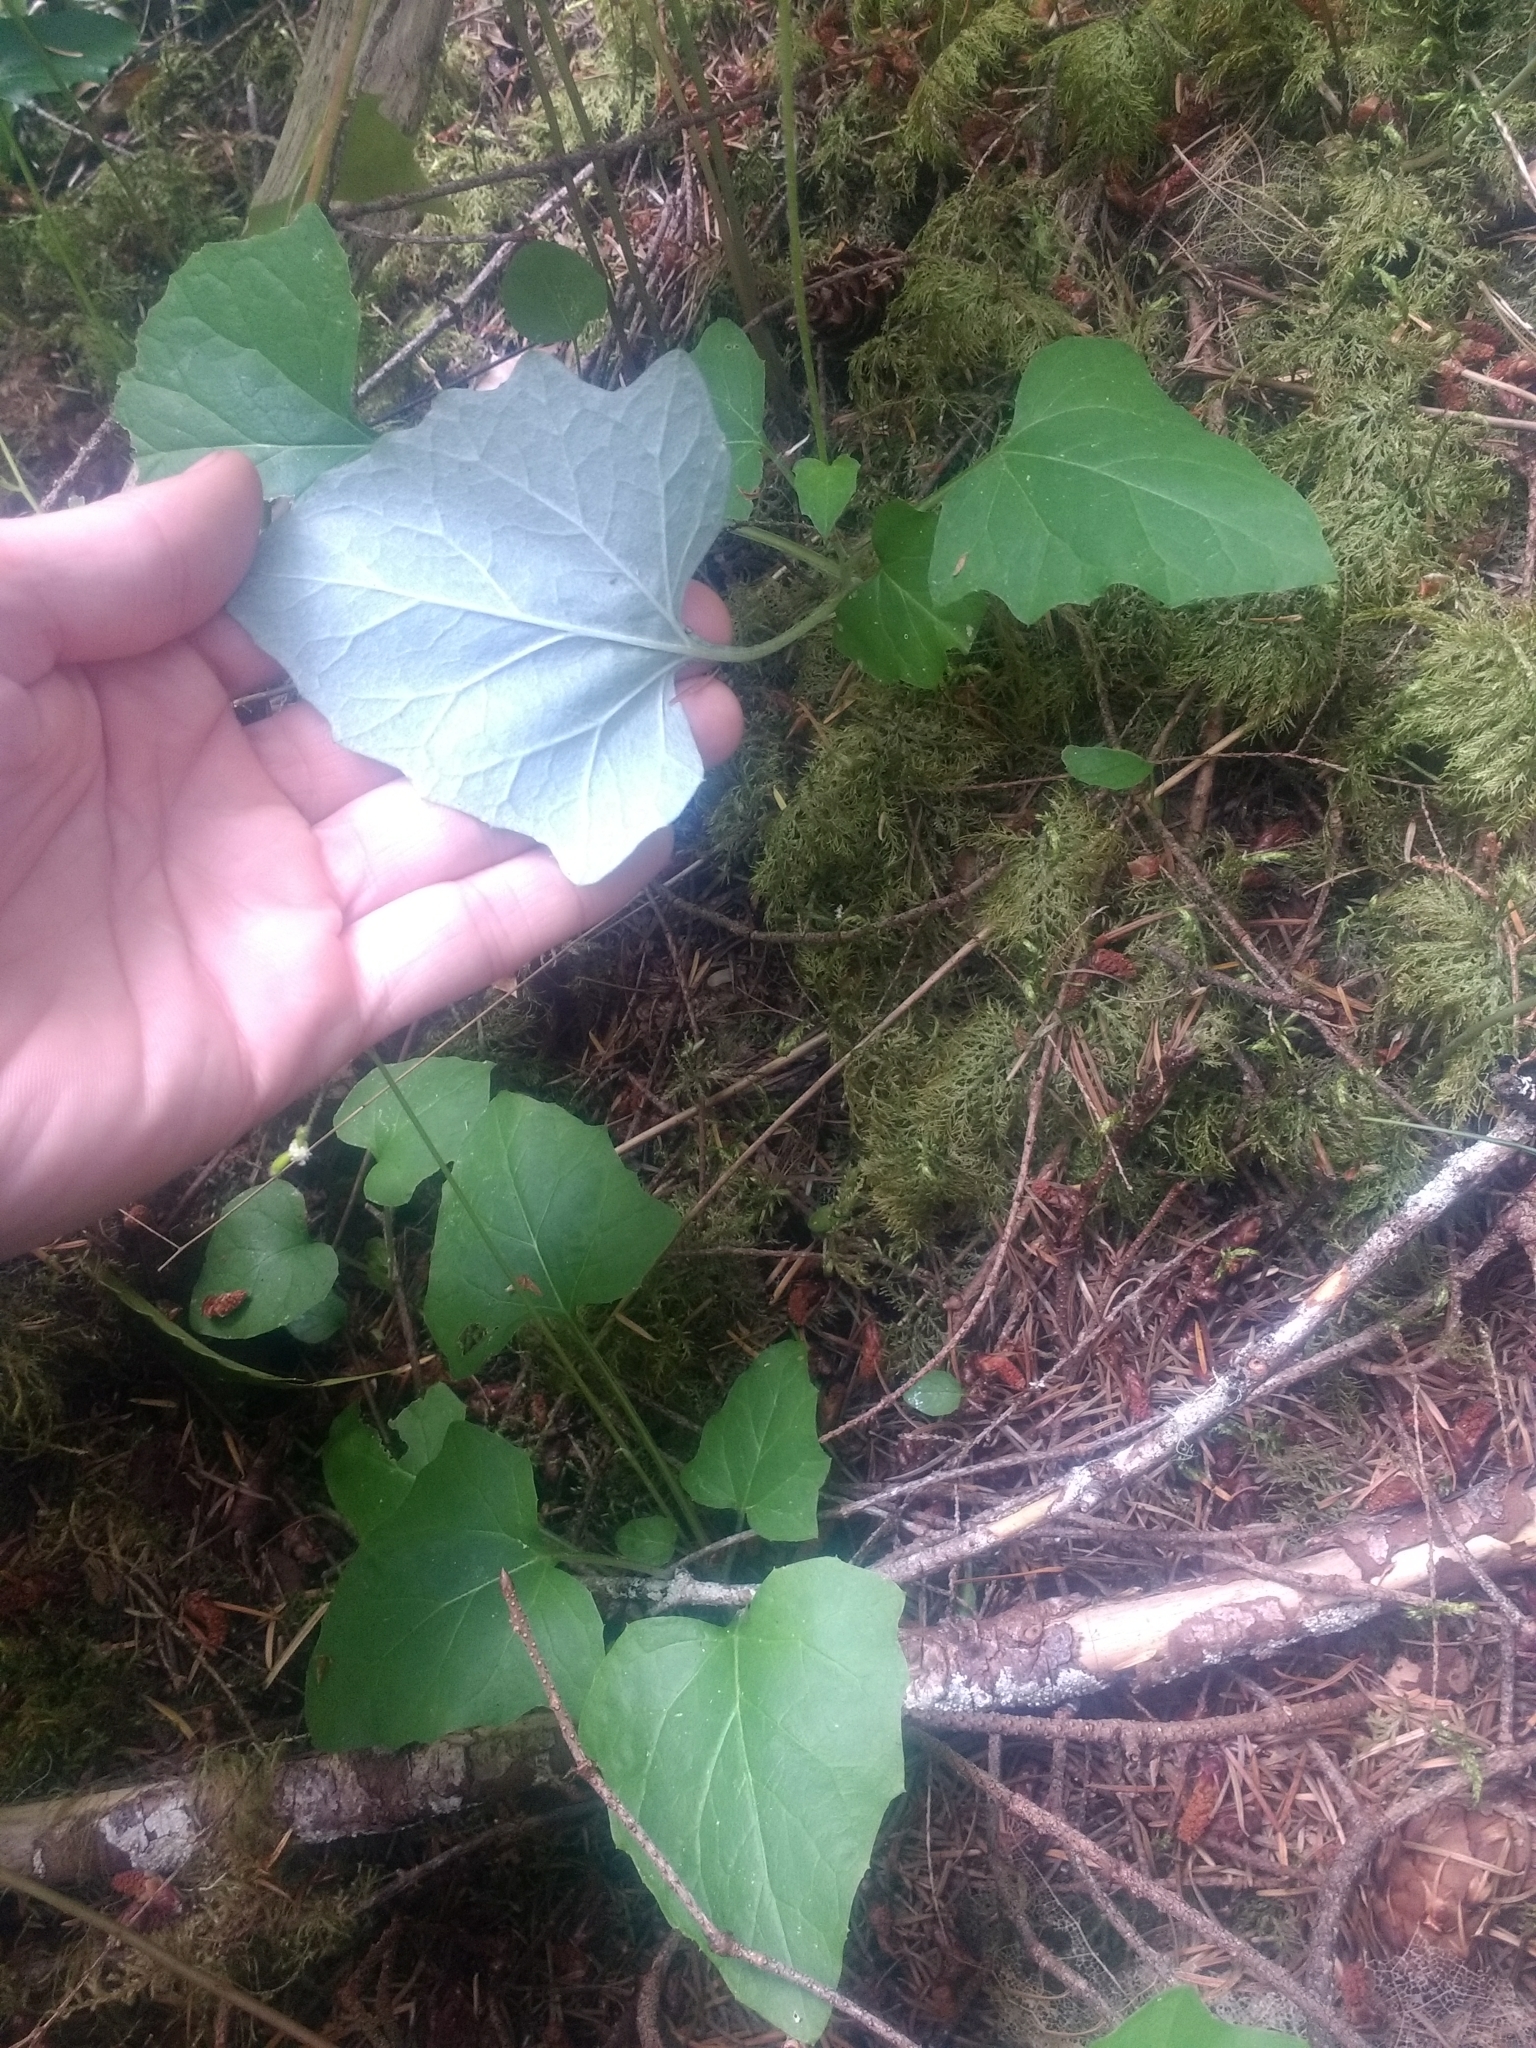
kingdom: Plantae
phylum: Tracheophyta
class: Magnoliopsida
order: Asterales
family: Asteraceae
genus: Adenocaulon
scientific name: Adenocaulon bicolor
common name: Trailplant
